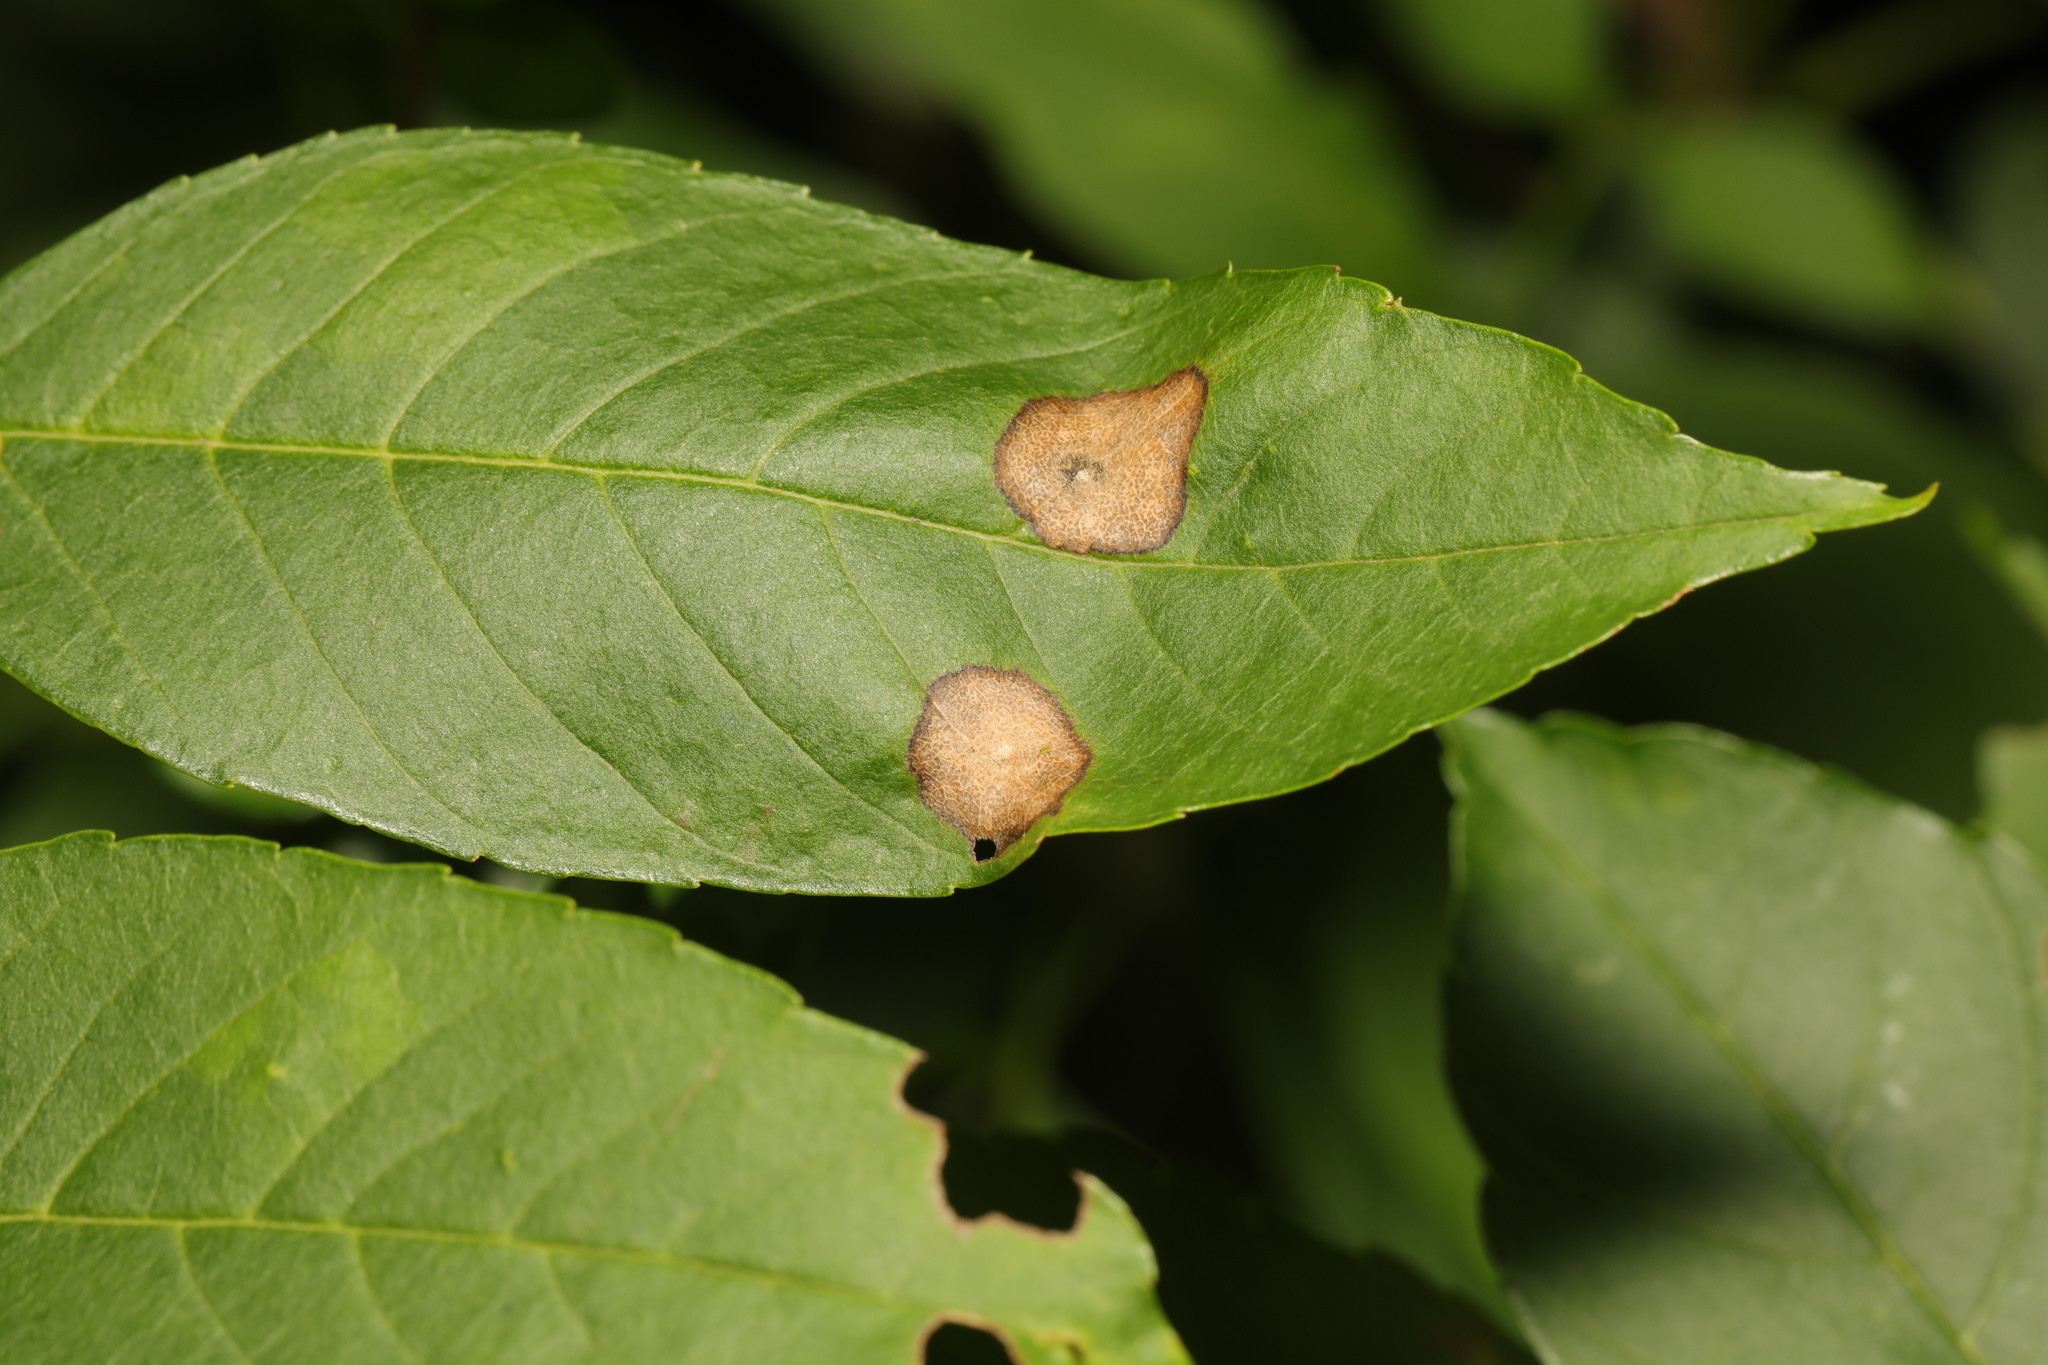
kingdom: Animalia
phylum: Arthropoda
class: Insecta
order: Diptera
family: Cecidomyiidae
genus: Dasineura
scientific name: Dasineura fraxinea
